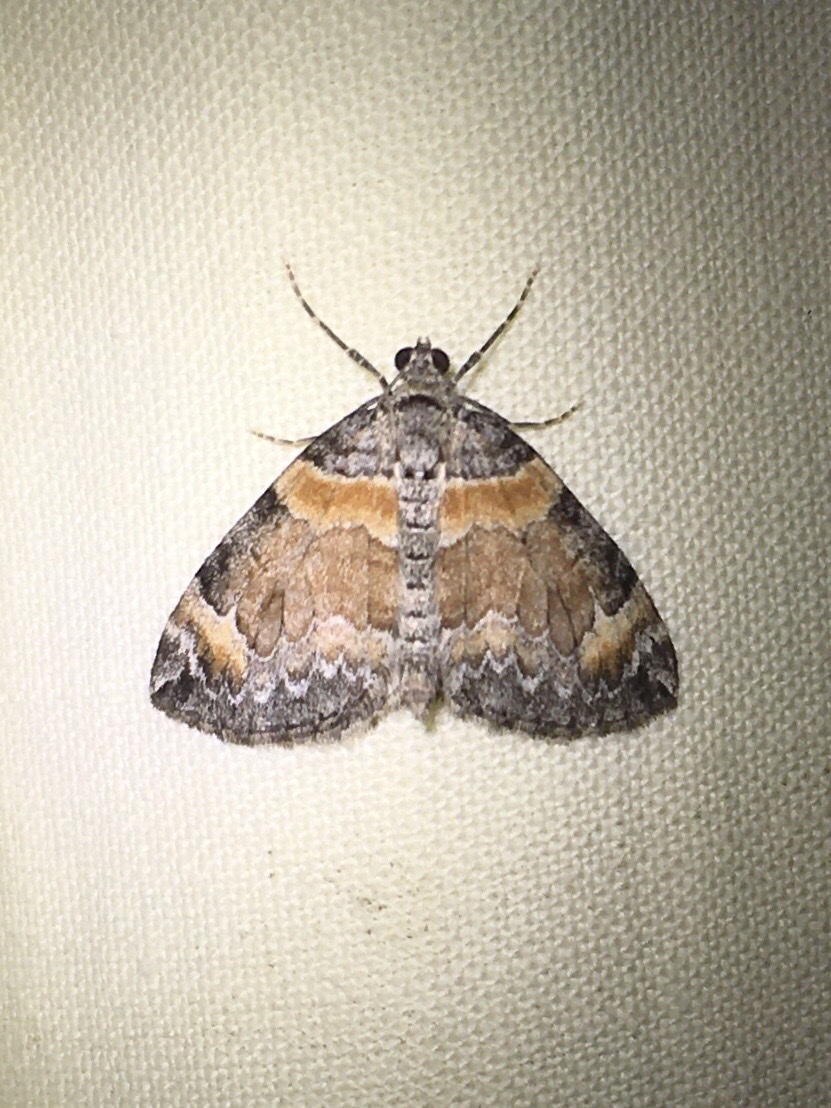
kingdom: Animalia
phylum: Arthropoda
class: Insecta
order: Lepidoptera
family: Geometridae
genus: Dysstroma
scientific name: Dysstroma hersiliata
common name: Orange-barred carpet
